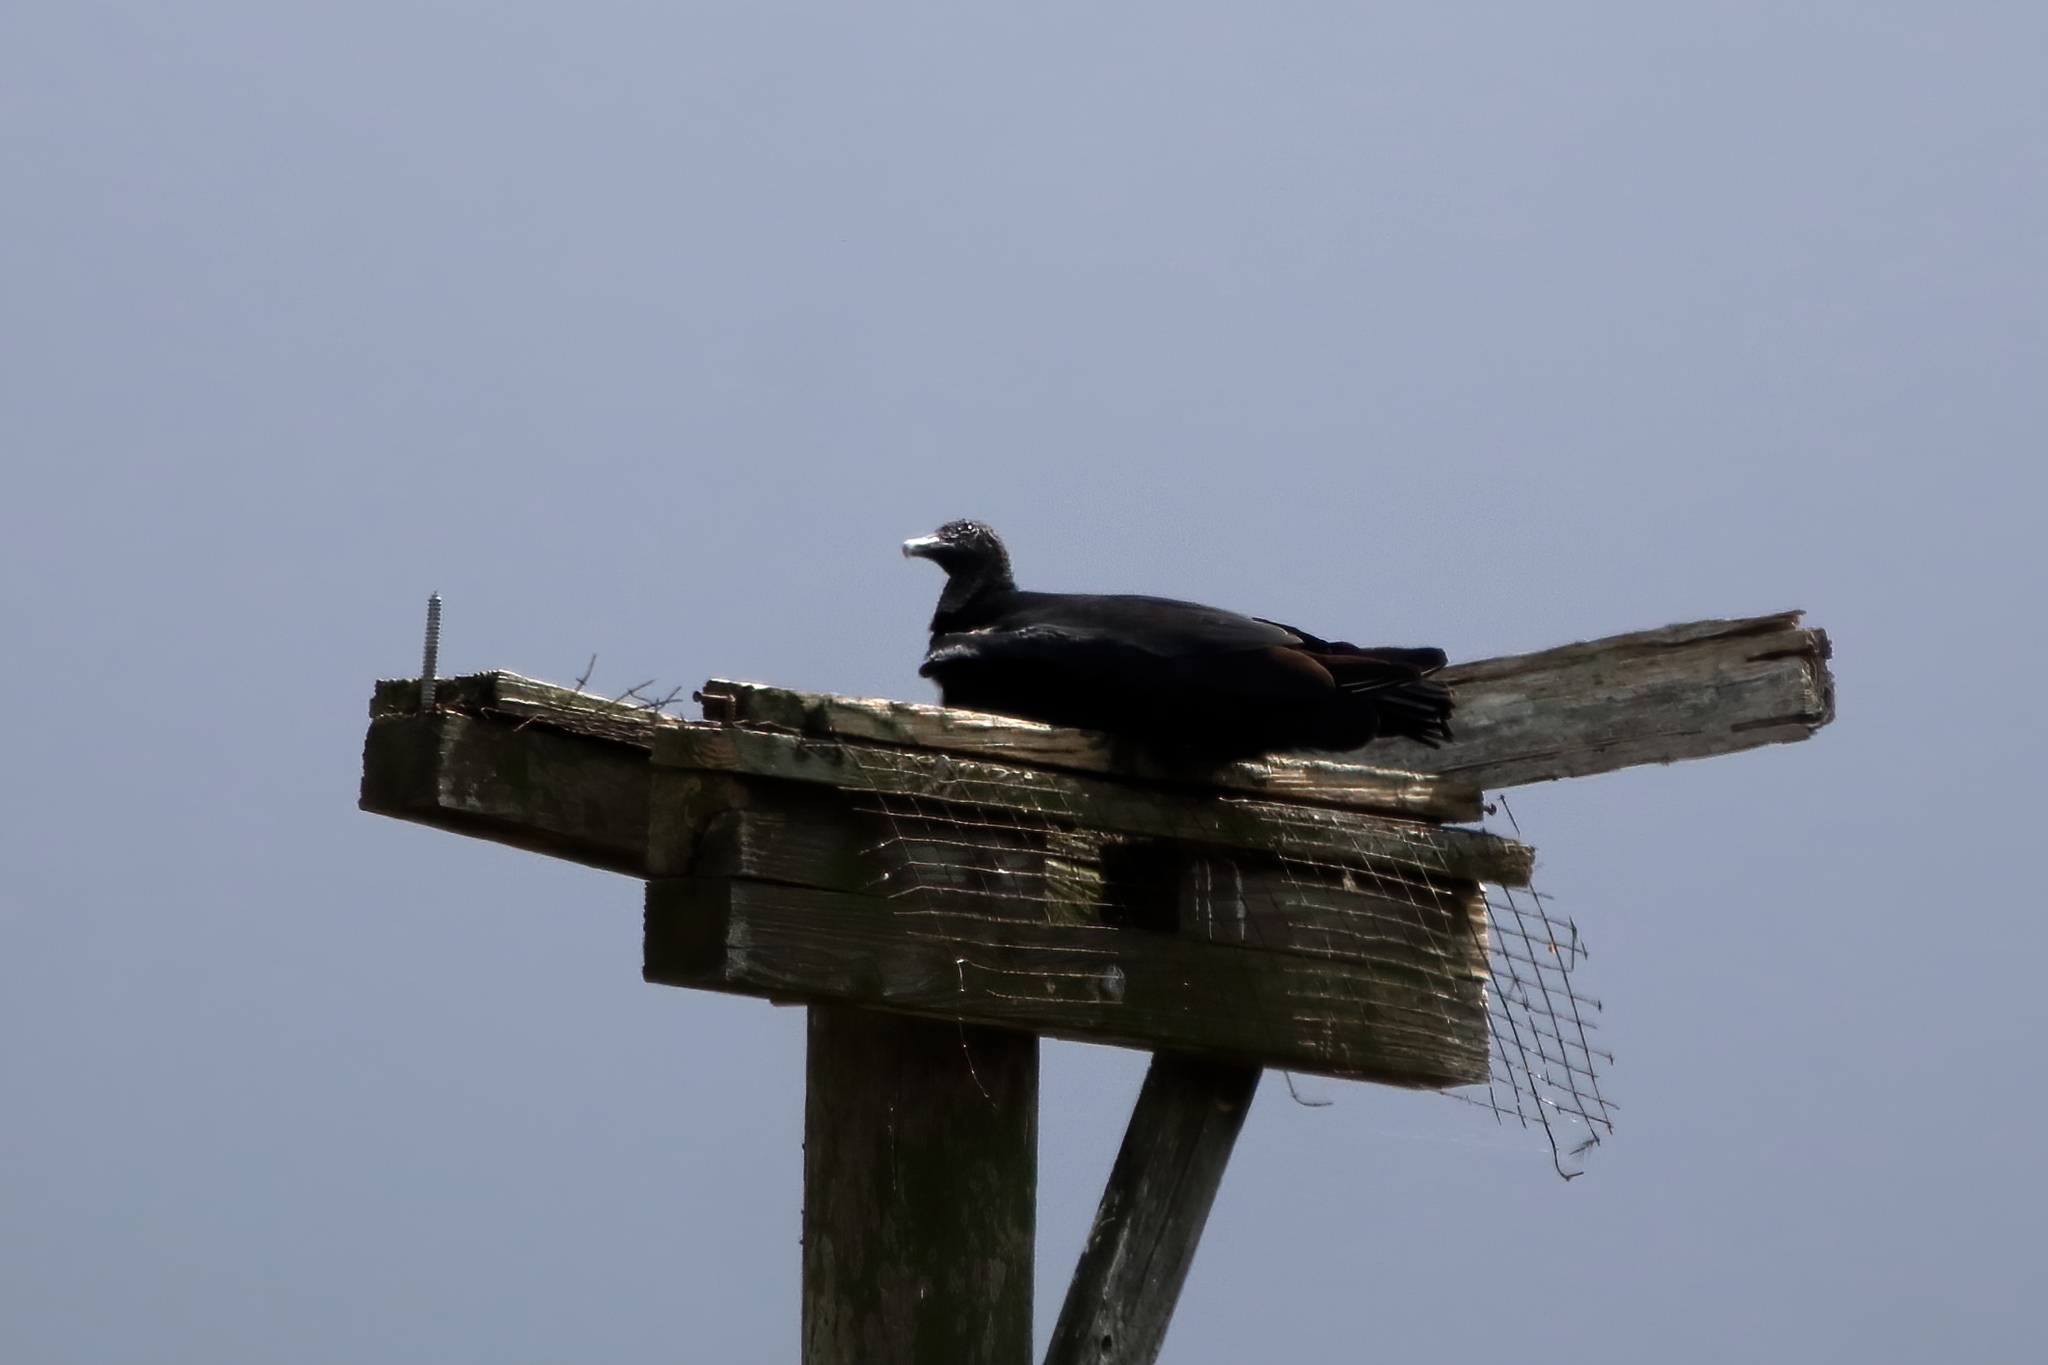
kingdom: Animalia
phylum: Chordata
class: Aves
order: Accipitriformes
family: Cathartidae
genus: Coragyps
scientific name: Coragyps atratus
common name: Black vulture
